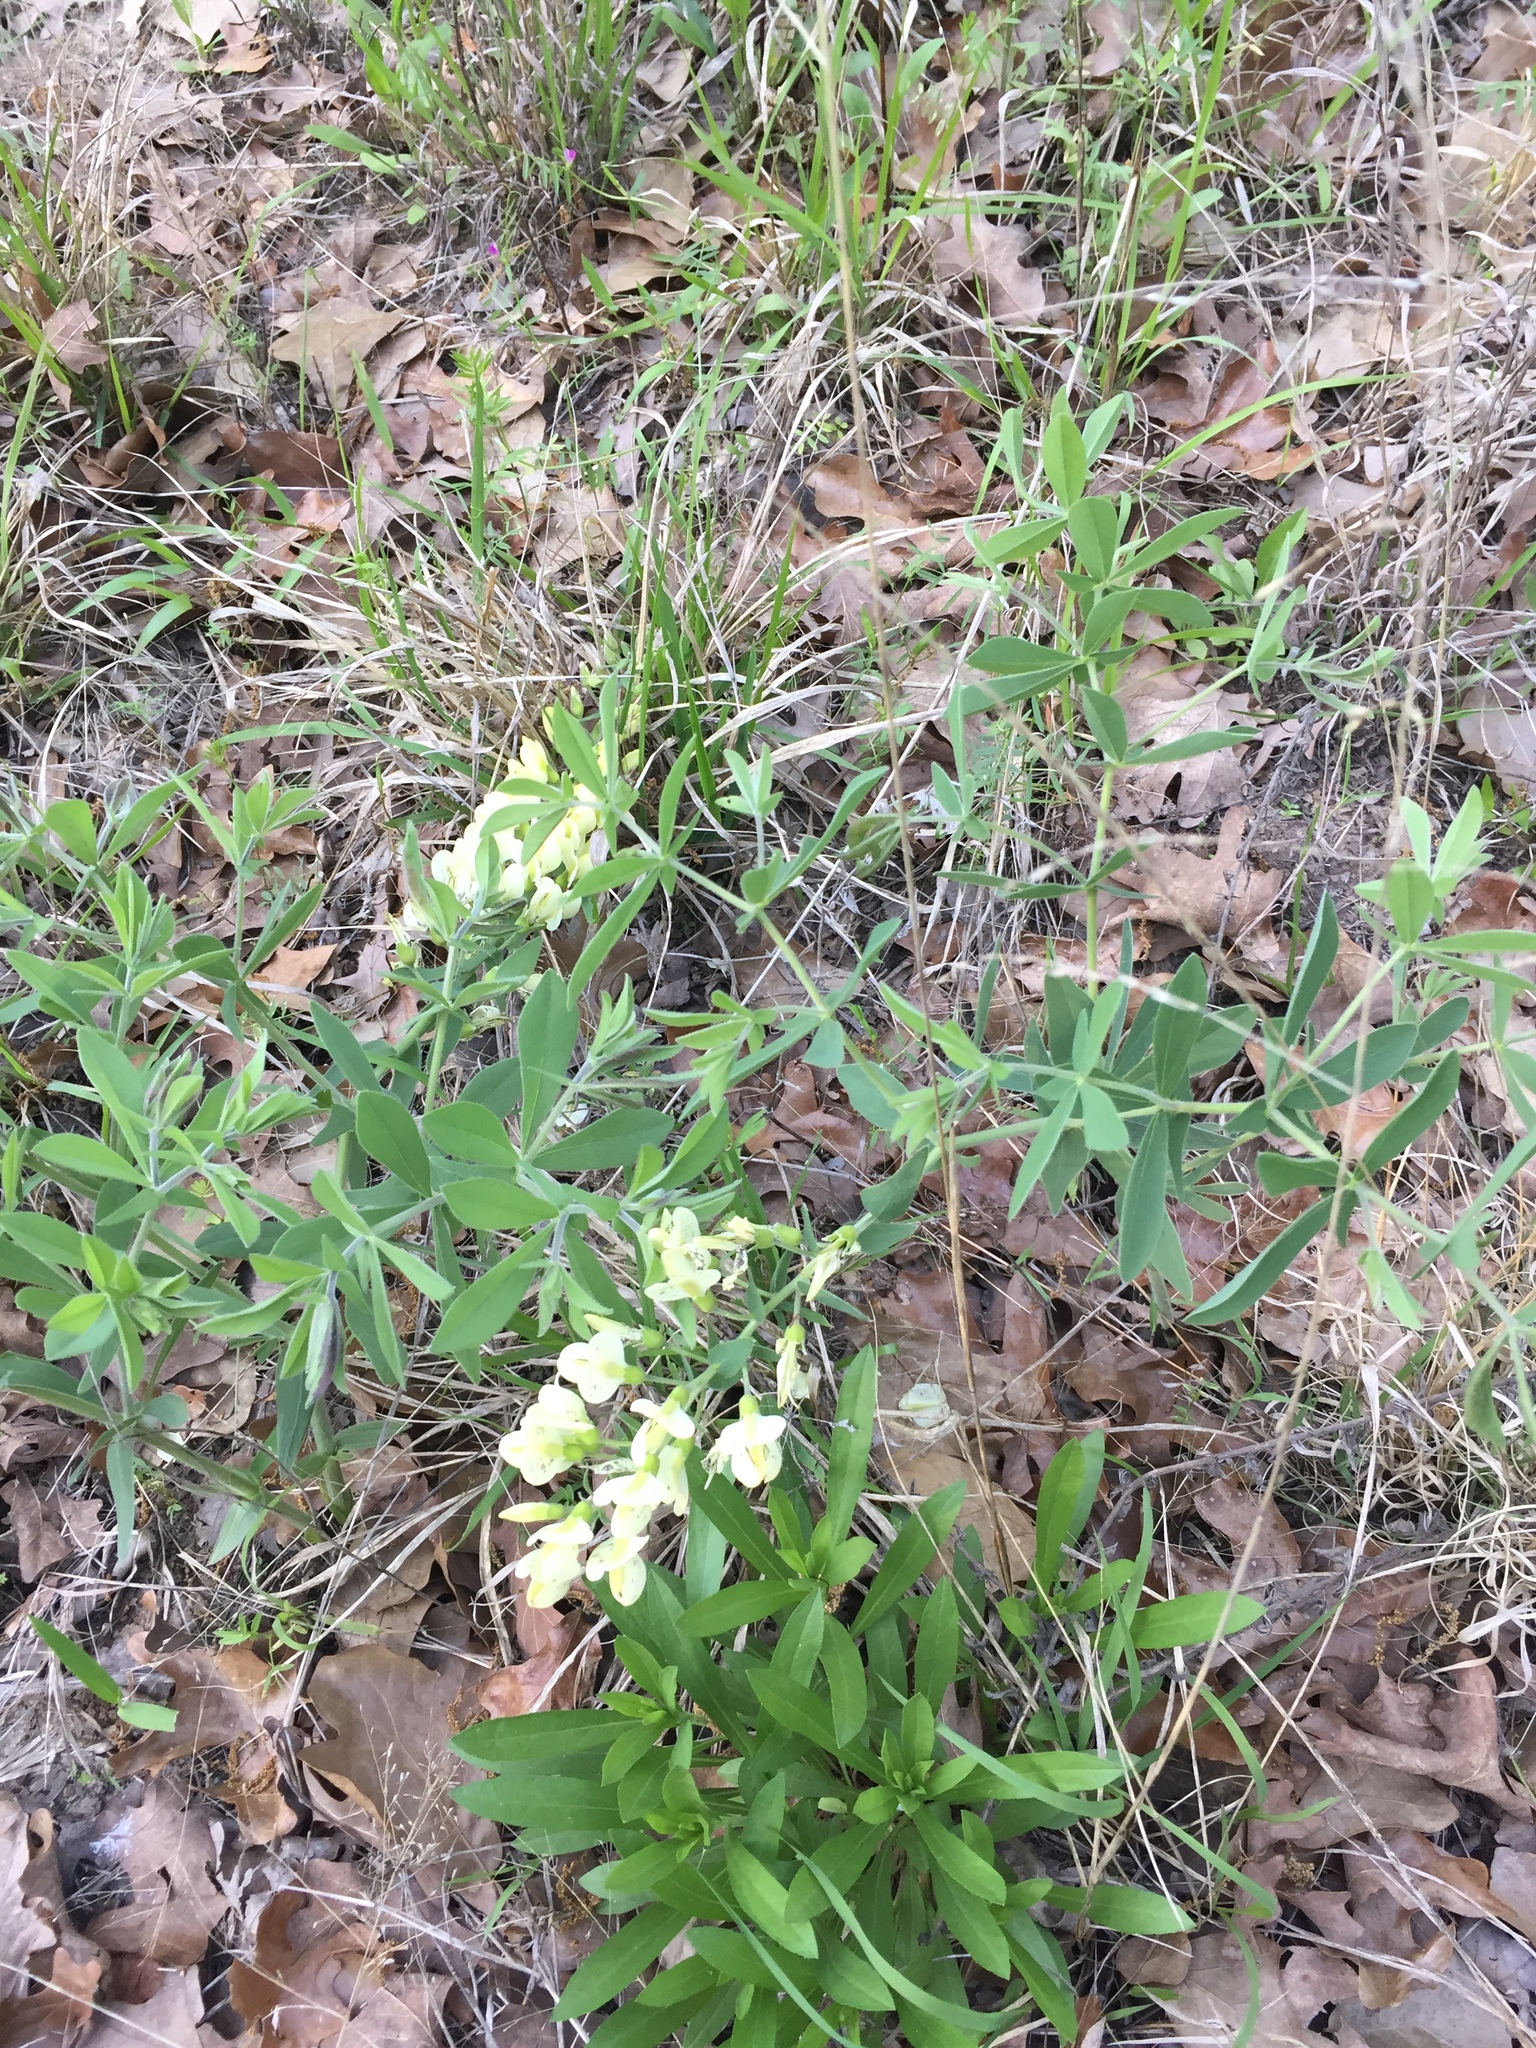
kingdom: Plantae
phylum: Tracheophyta
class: Magnoliopsida
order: Fabales
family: Fabaceae
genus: Baptisia
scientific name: Baptisia bracteata
